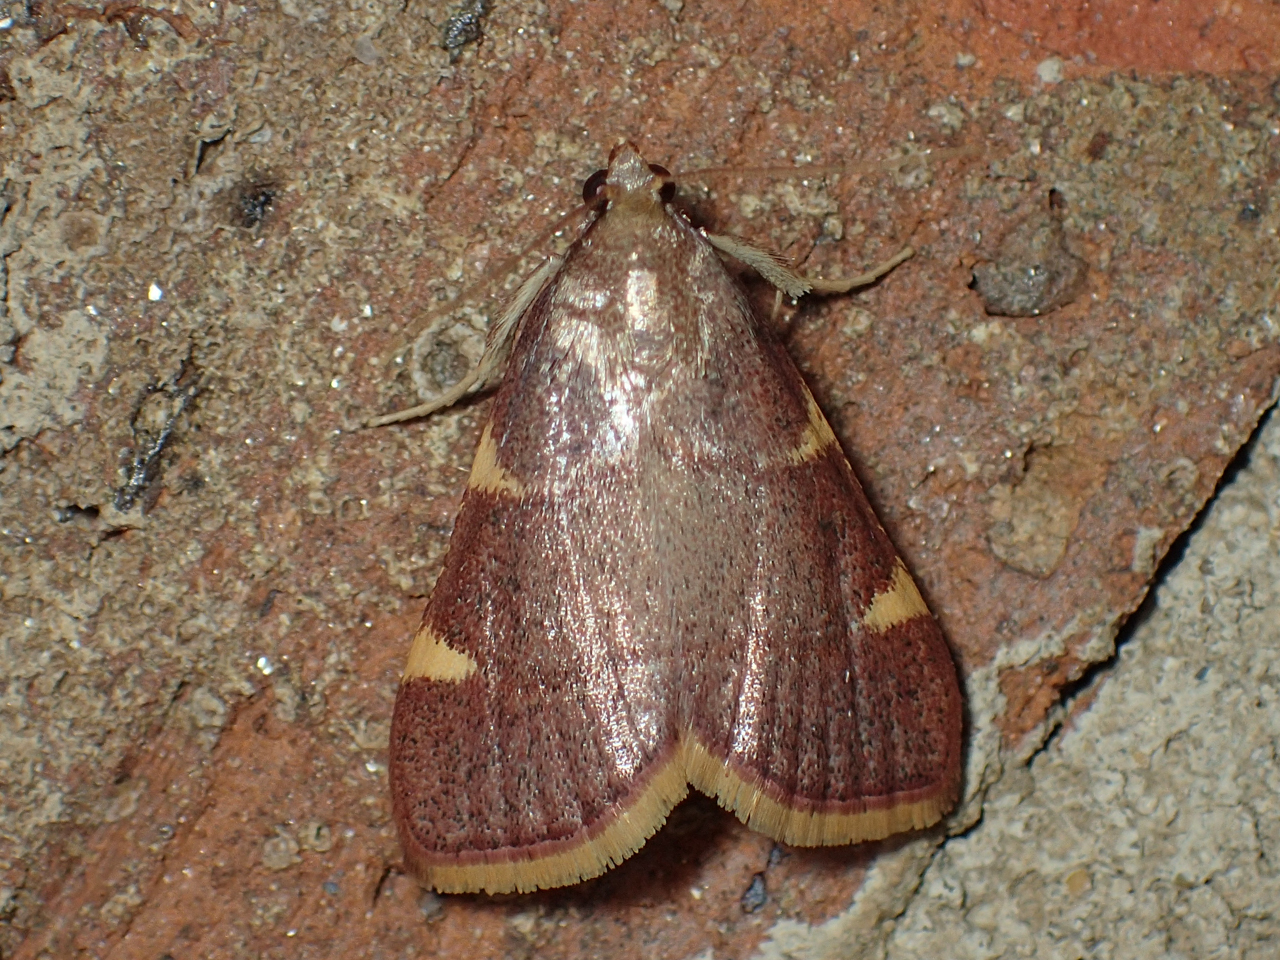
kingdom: Animalia
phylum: Arthropoda
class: Insecta
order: Lepidoptera
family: Pyralidae
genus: Hypsopygia
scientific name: Hypsopygia olinalis
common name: Yellow-fringed dolichomia moth
